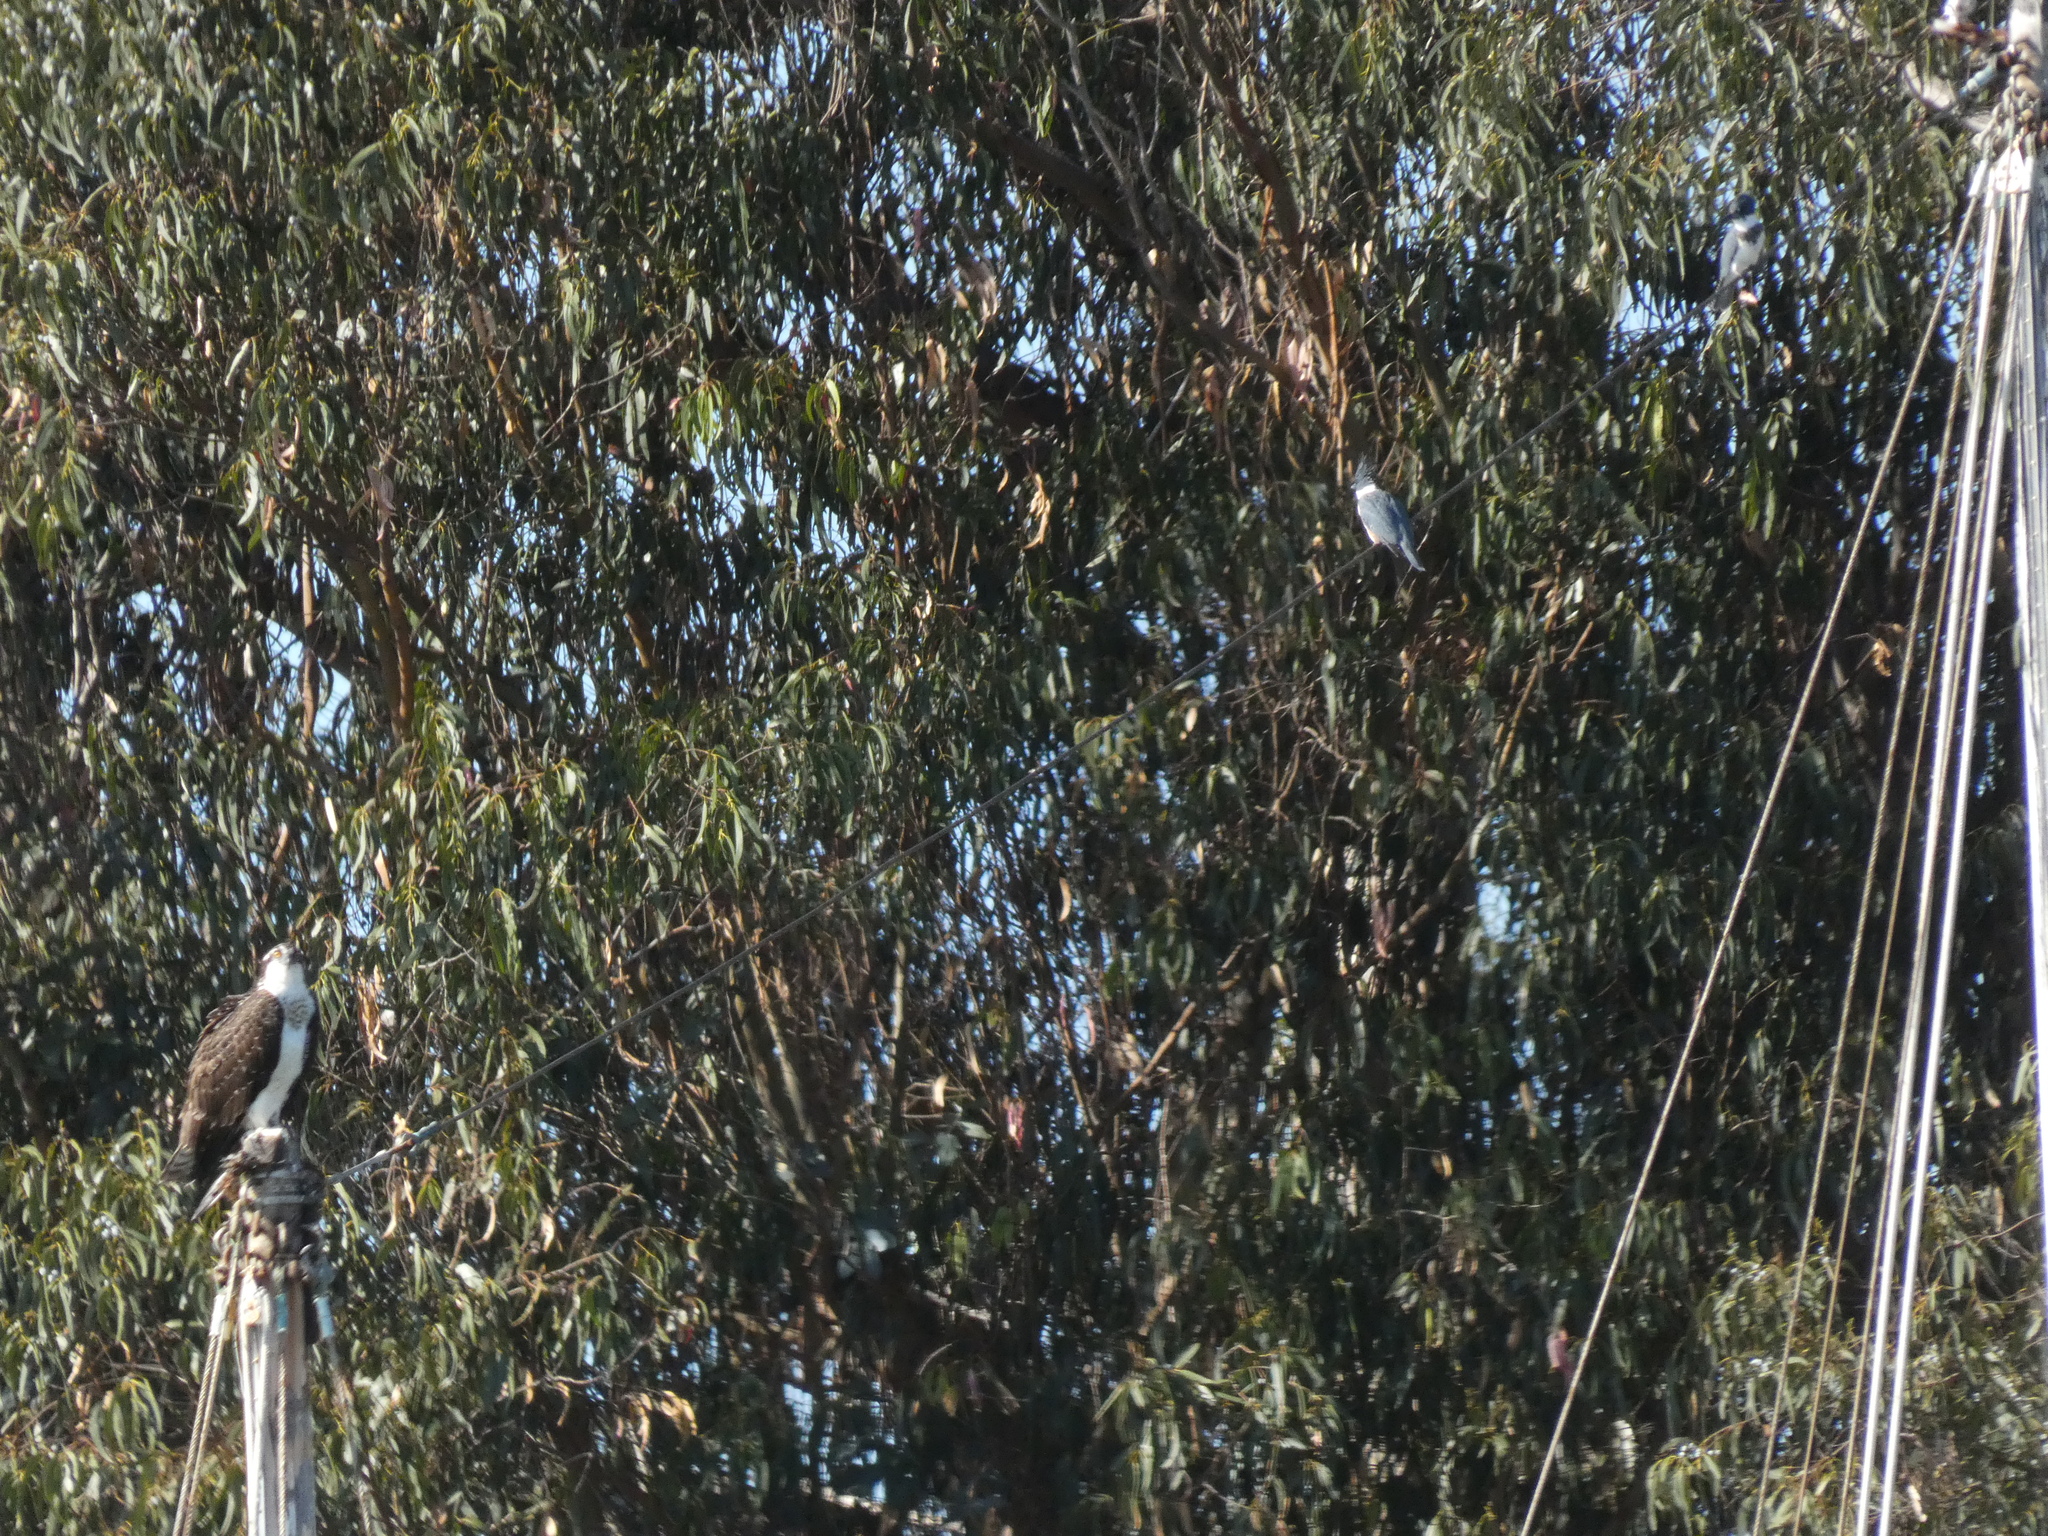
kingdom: Animalia
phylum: Chordata
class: Aves
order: Coraciiformes
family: Alcedinidae
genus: Megaceryle
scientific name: Megaceryle alcyon
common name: Belted kingfisher
